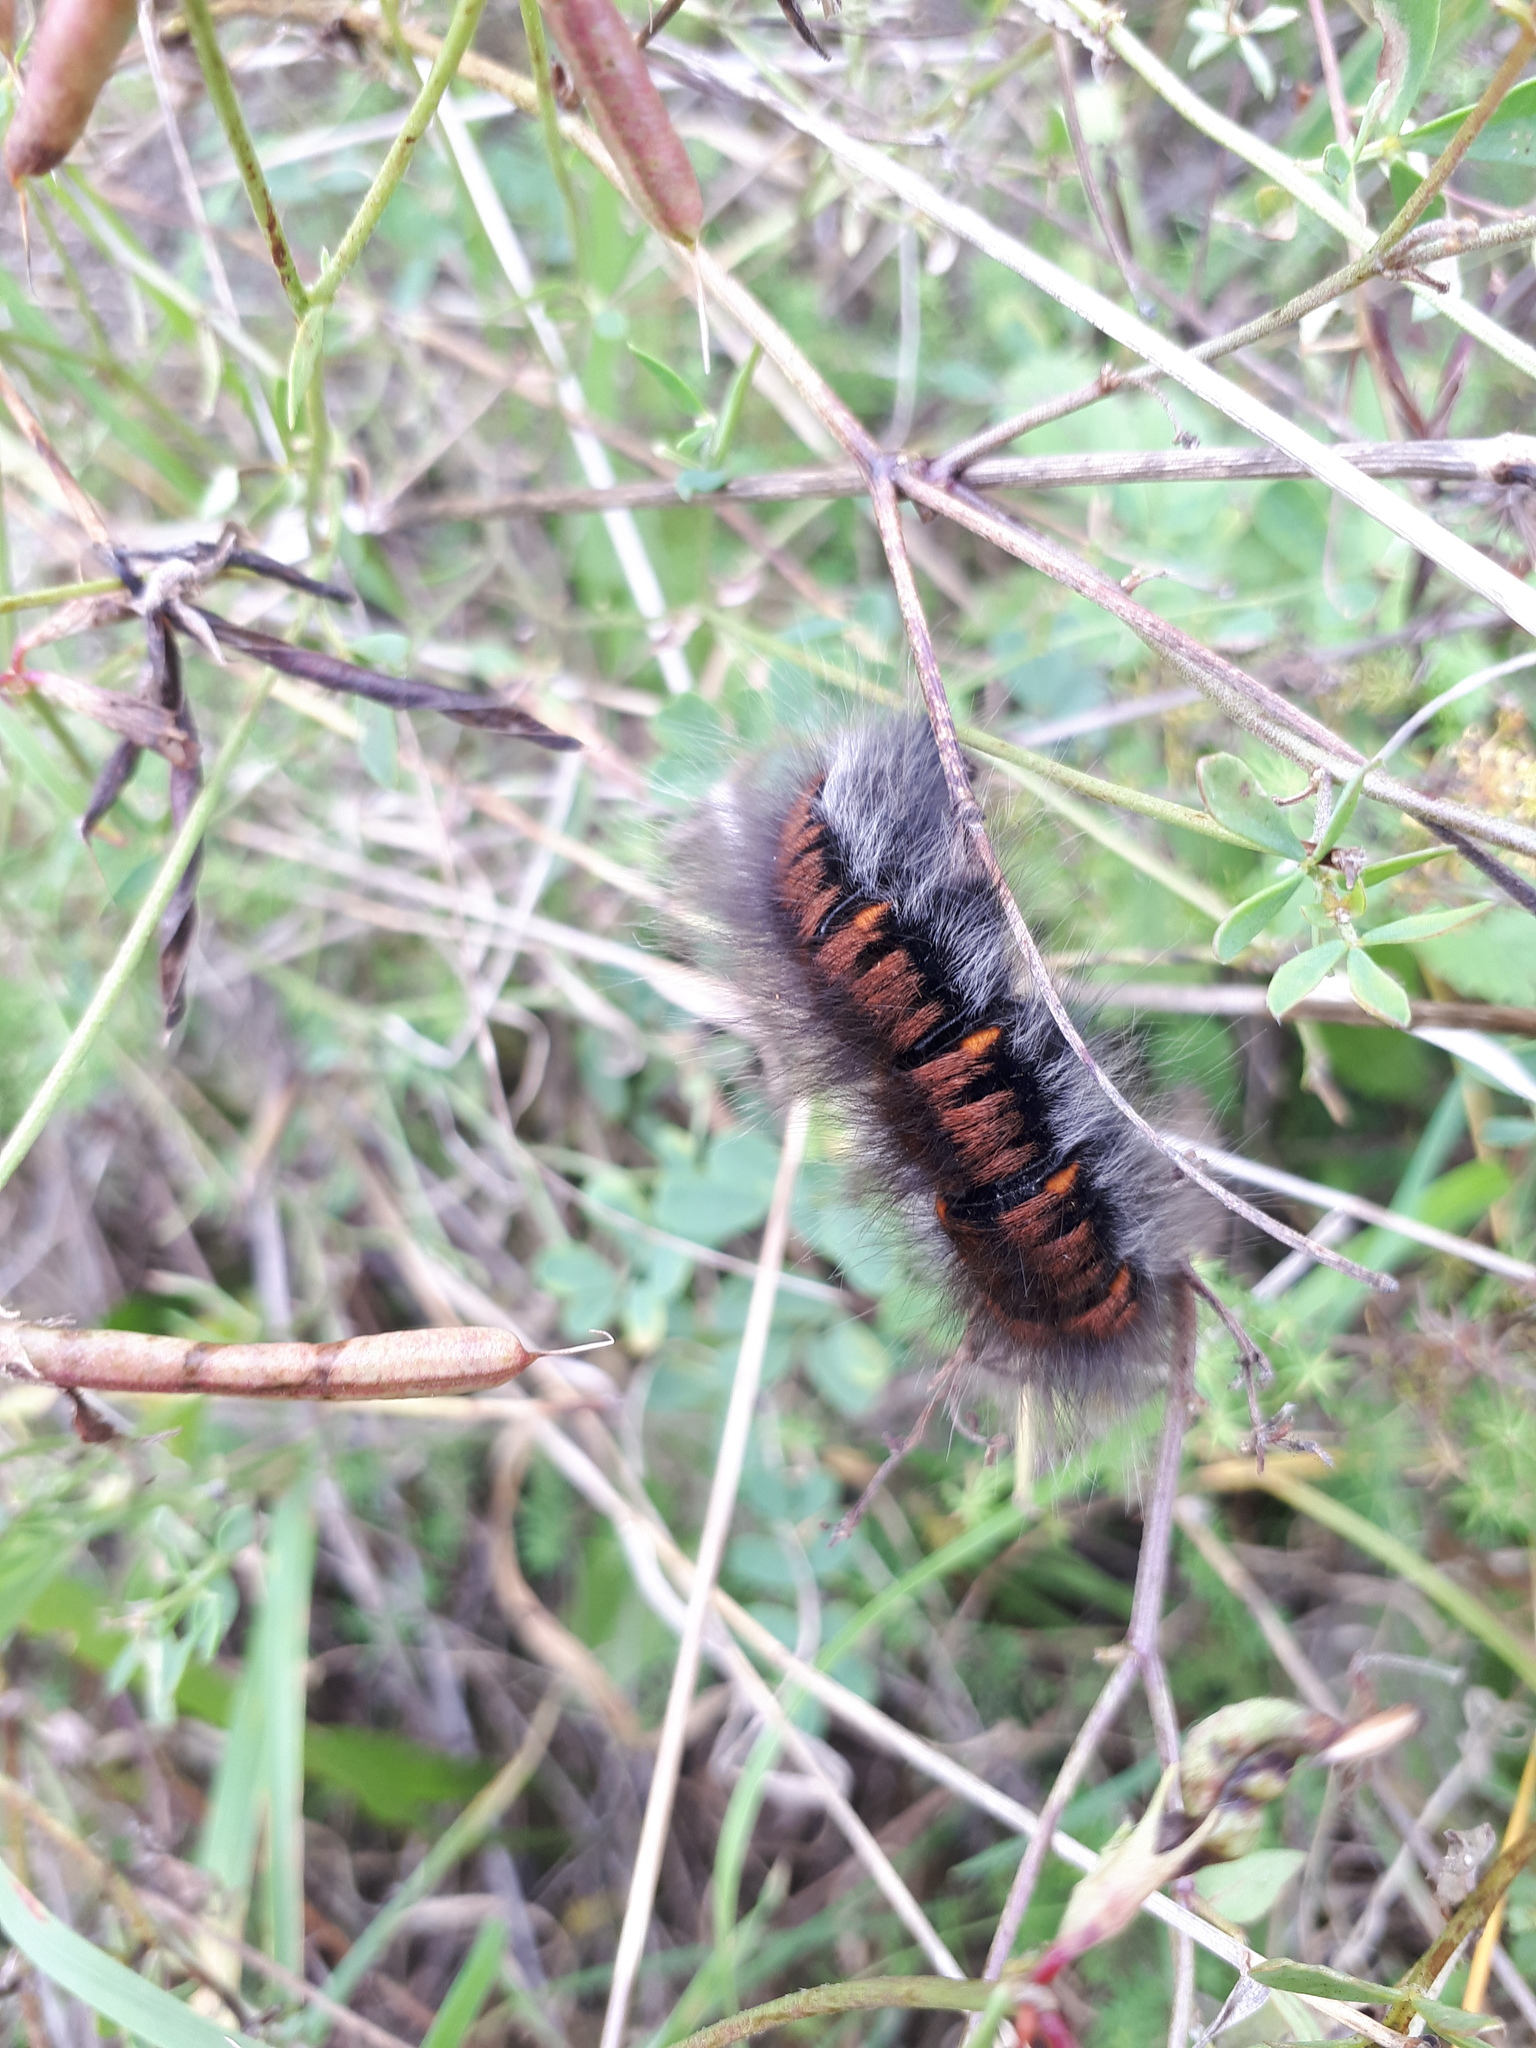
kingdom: Animalia
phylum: Arthropoda
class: Insecta
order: Lepidoptera
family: Lasiocampidae
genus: Macrothylacia
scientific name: Macrothylacia rubi
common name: Fox moth
